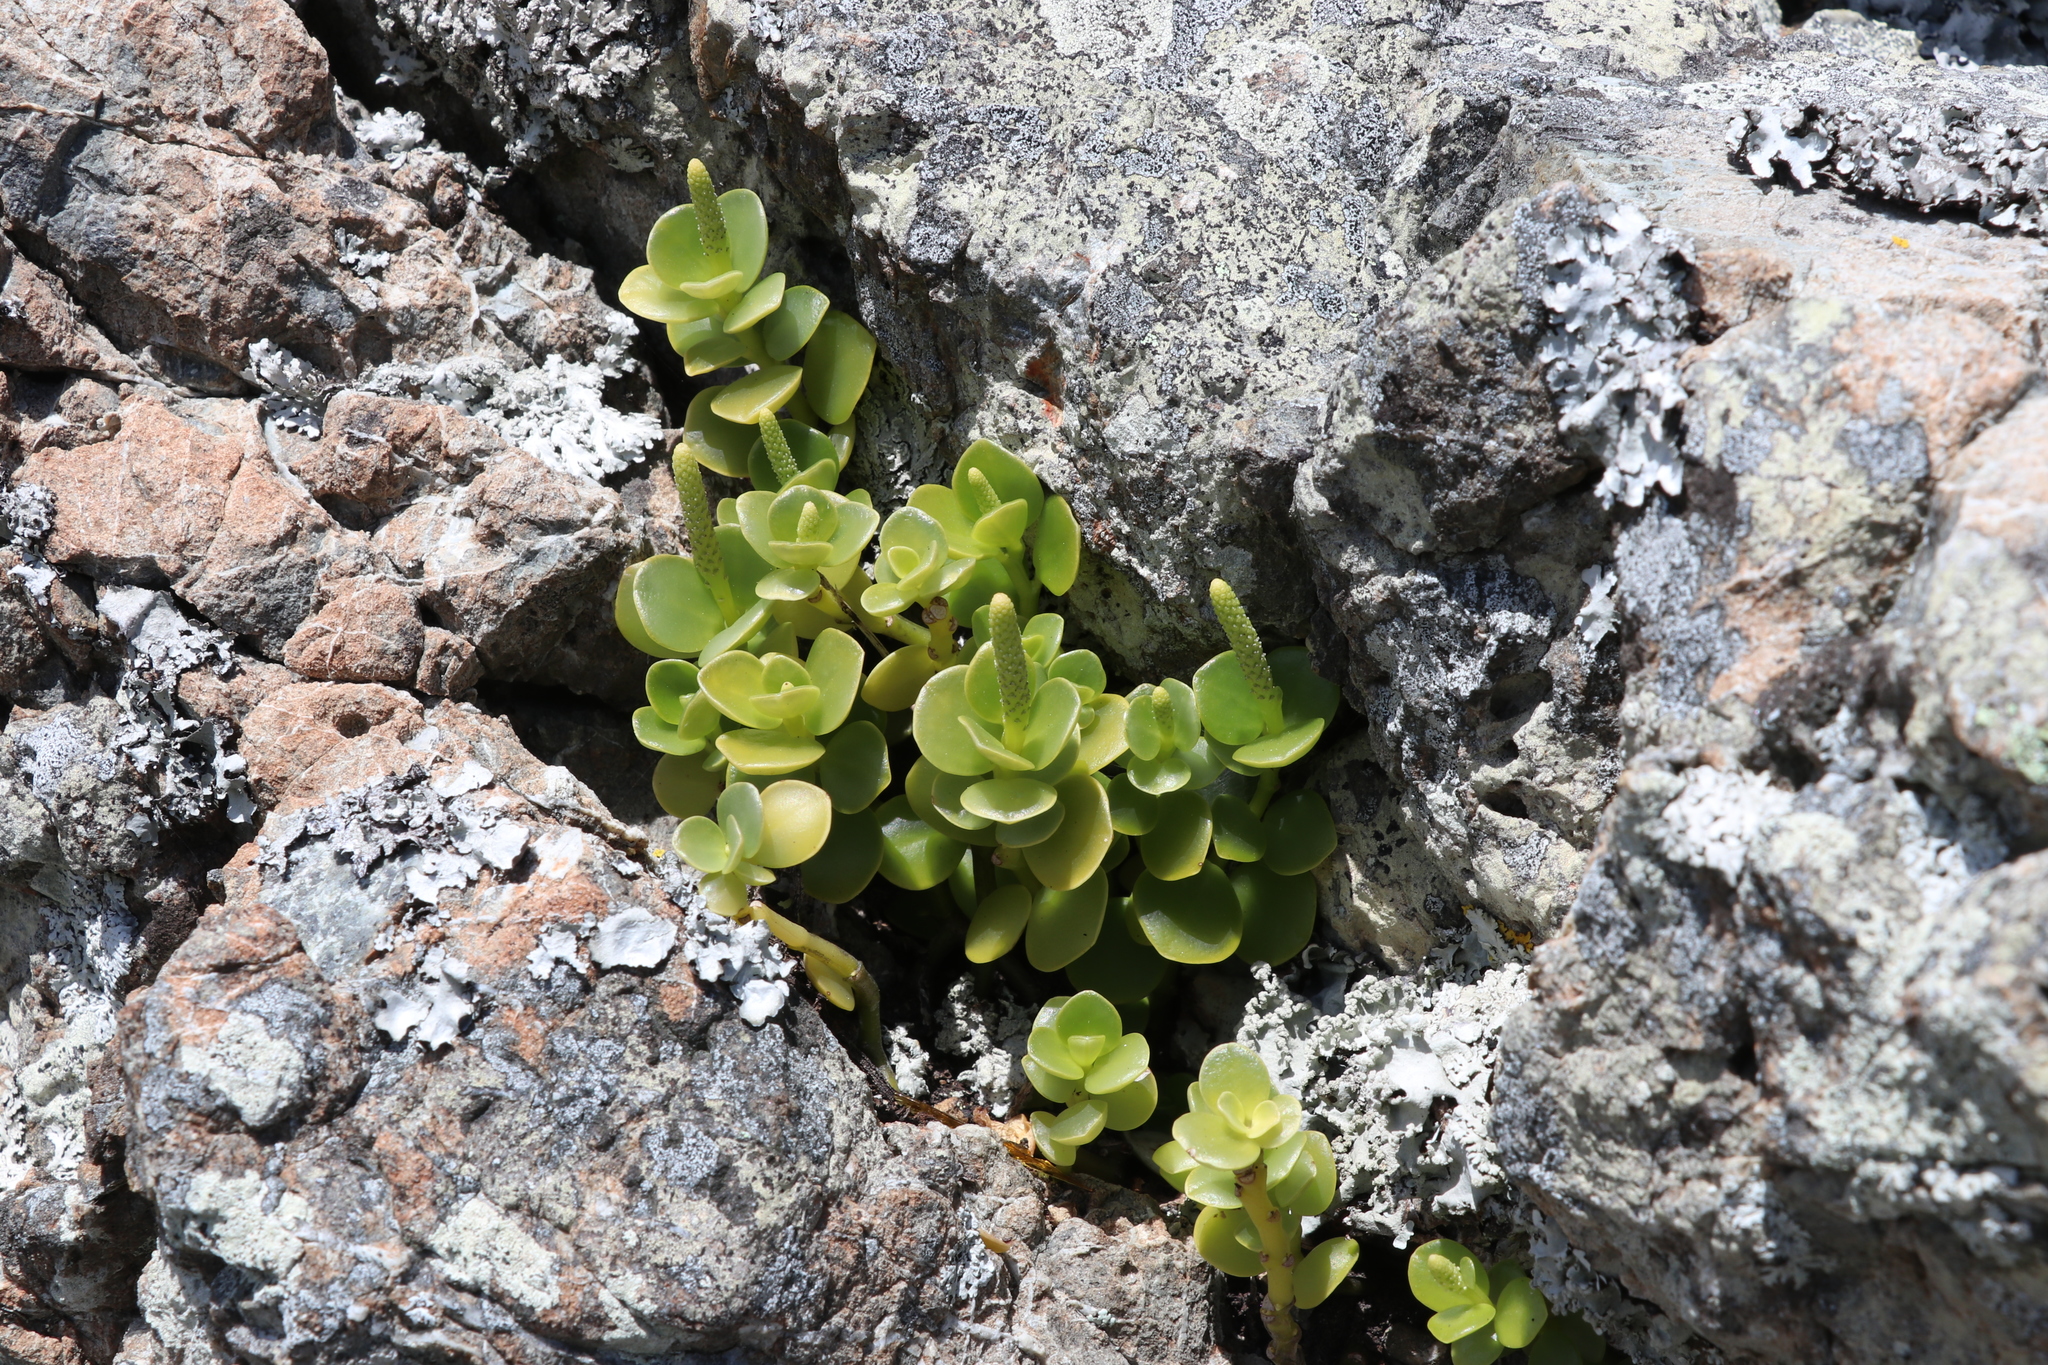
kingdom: Plantae
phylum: Tracheophyta
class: Magnoliopsida
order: Piperales
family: Piperaceae
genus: Peperomia
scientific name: Peperomia urvilleana
